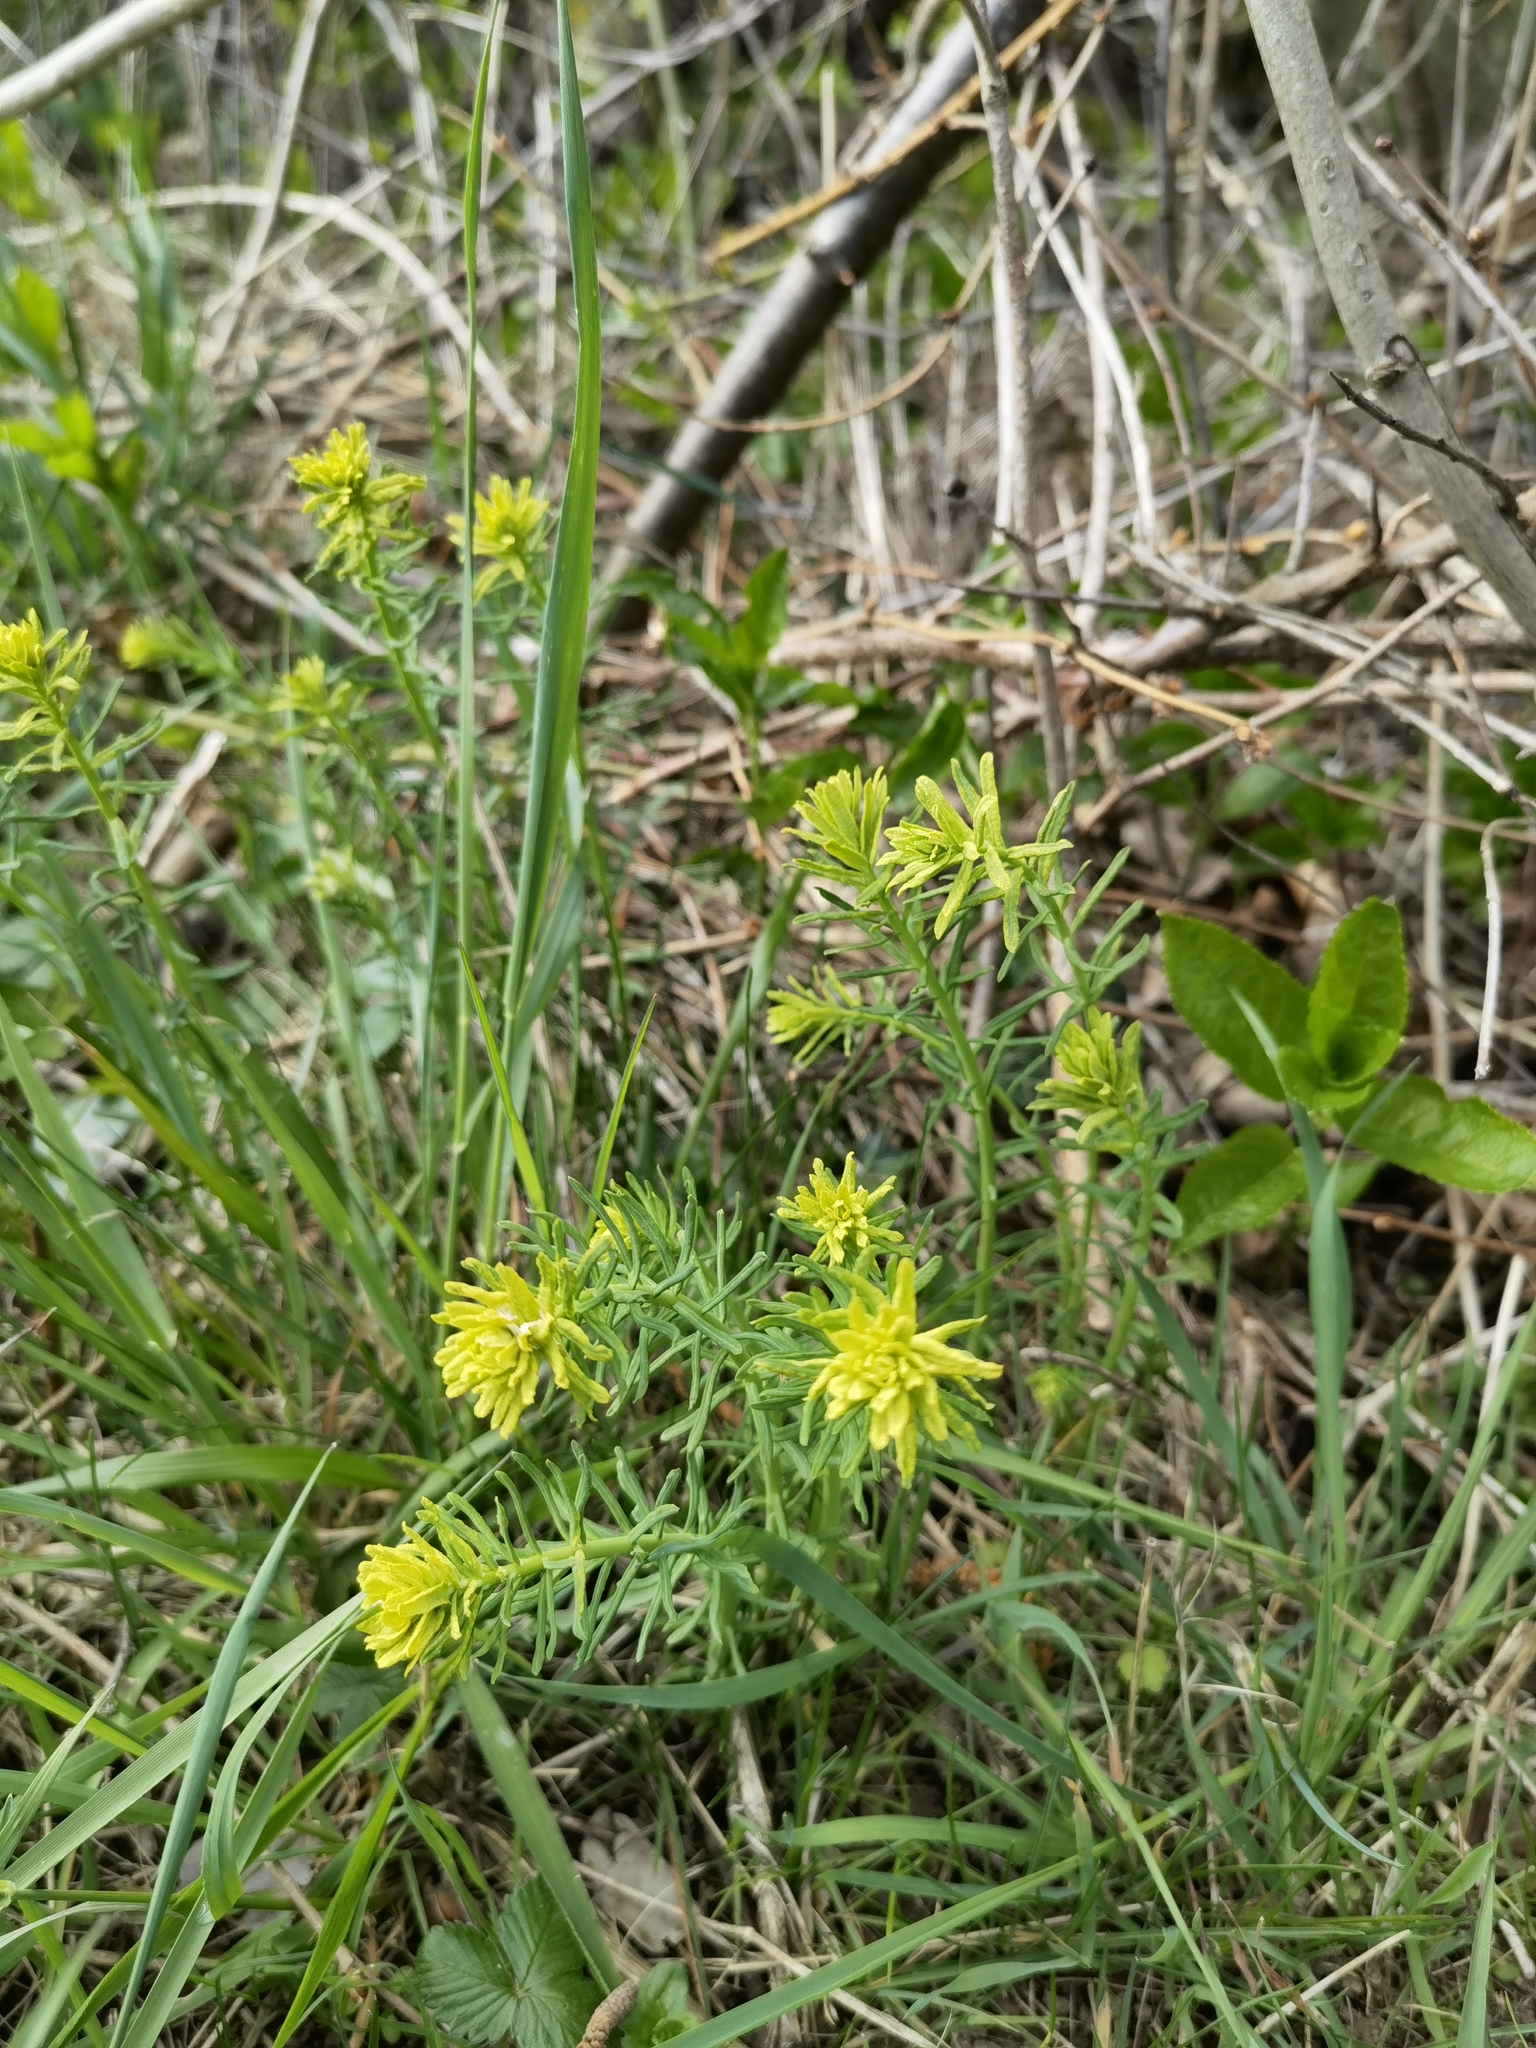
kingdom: Plantae
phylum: Tracheophyta
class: Magnoliopsida
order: Malpighiales
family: Euphorbiaceae
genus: Euphorbia
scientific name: Euphorbia cyparissias
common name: Cypress spurge
